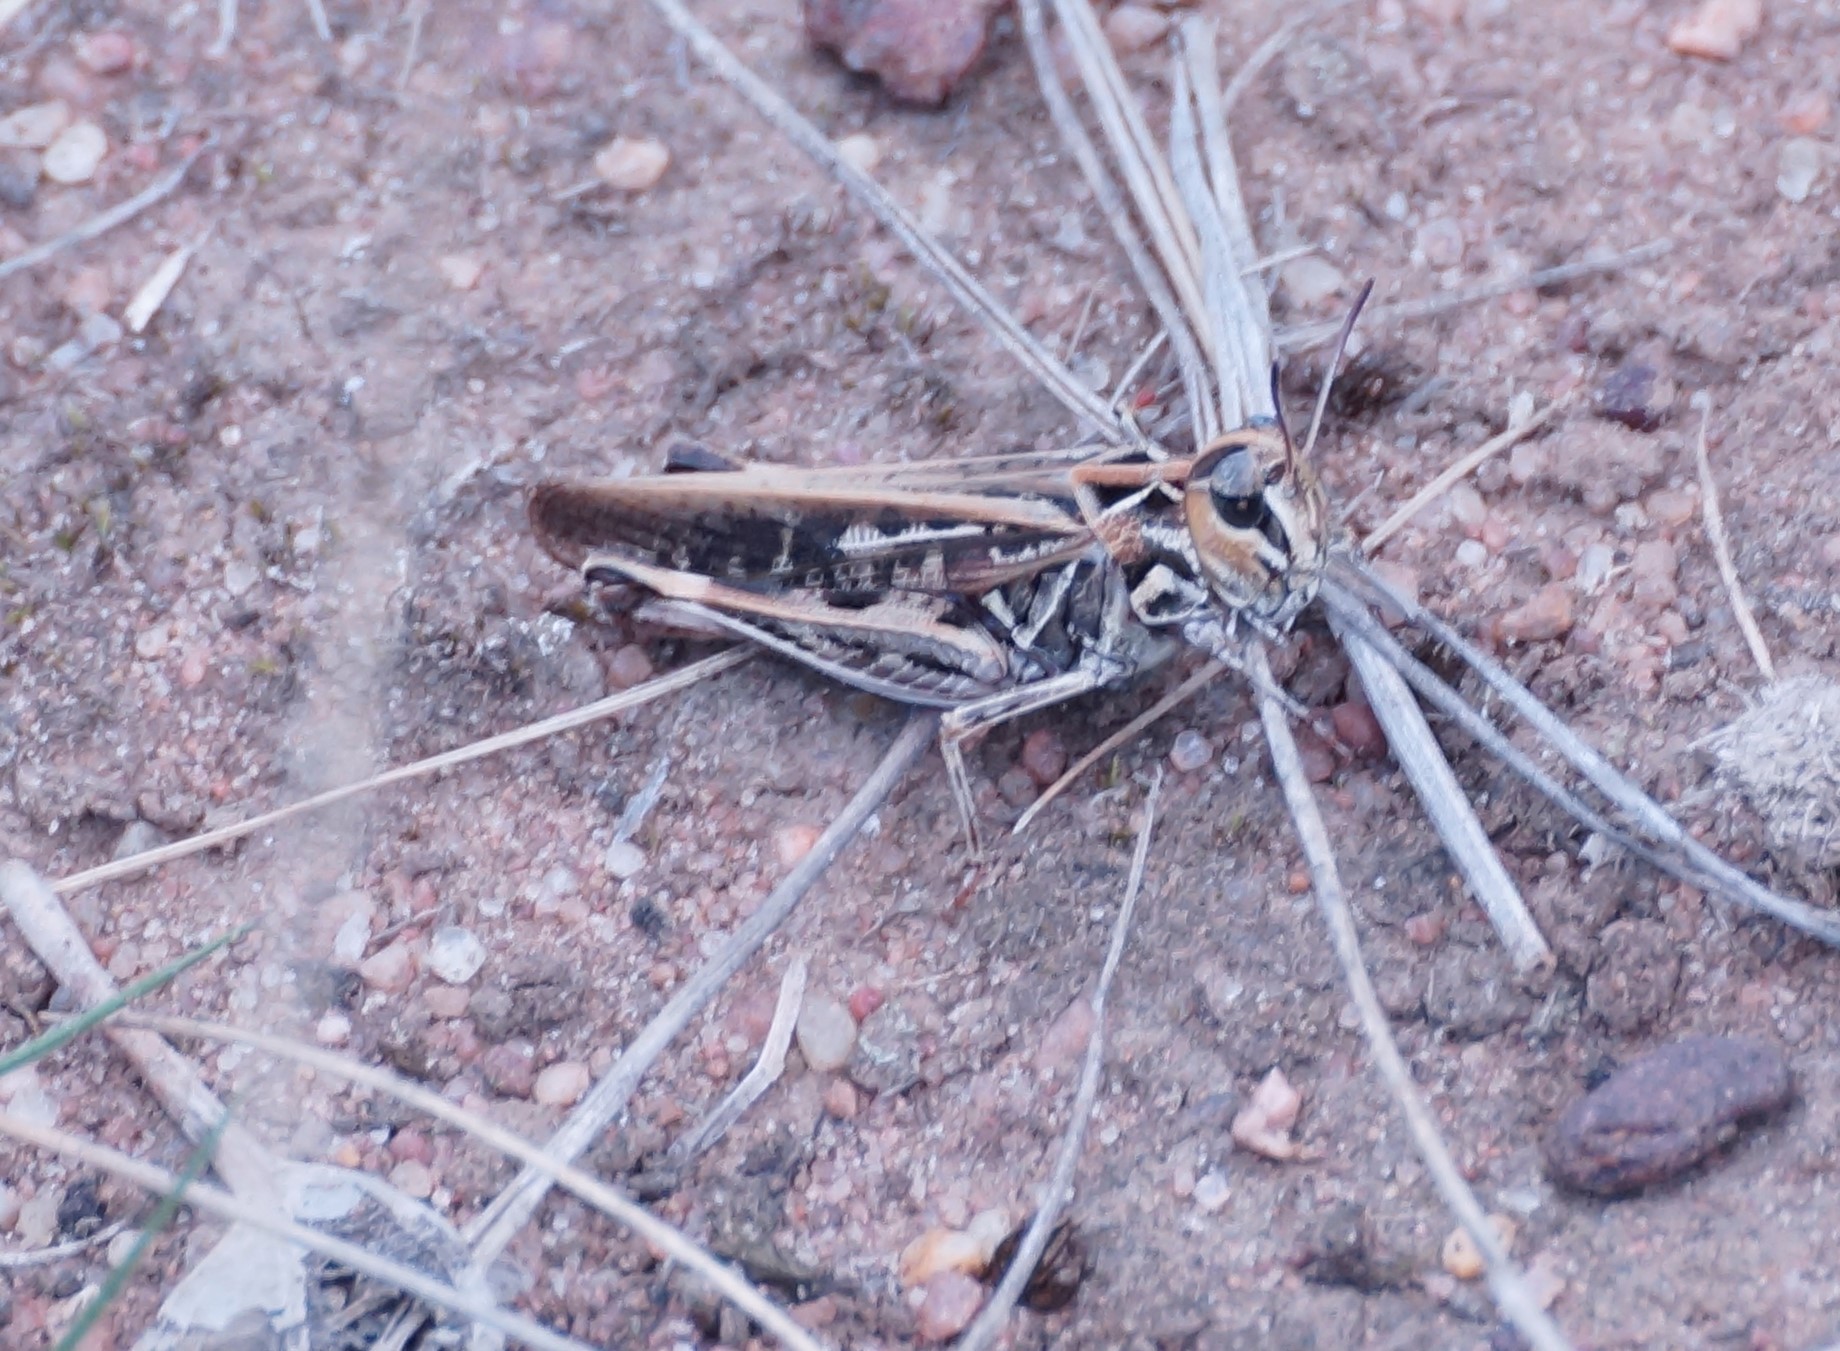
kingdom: Animalia
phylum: Arthropoda
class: Insecta
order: Orthoptera
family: Acrididae
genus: Austroicetes
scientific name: Austroicetes vulgaris
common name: Southeastern austroicetes
